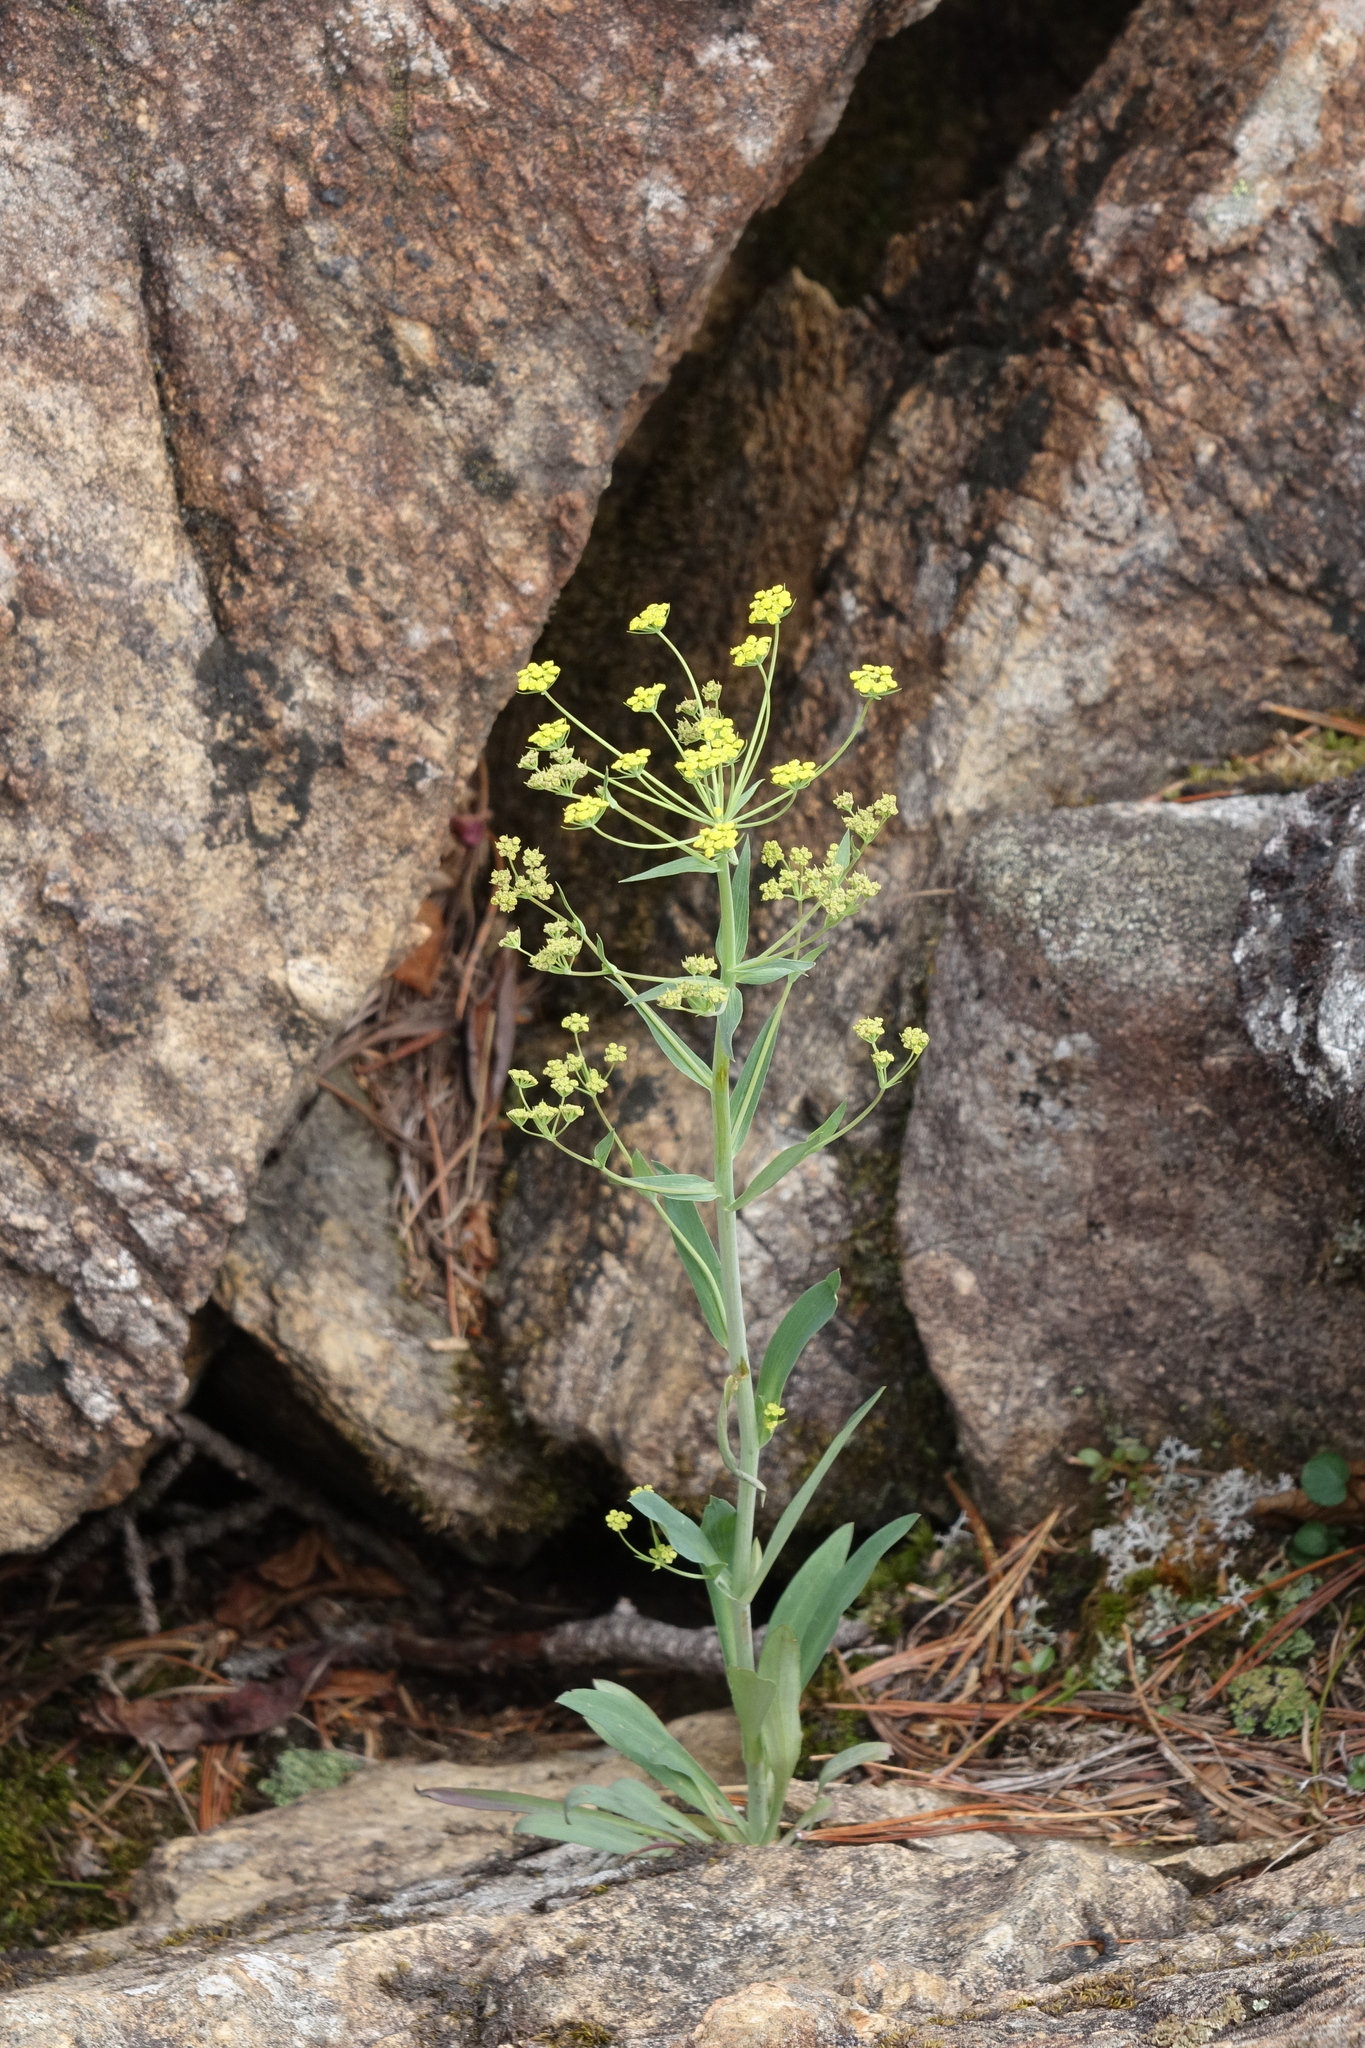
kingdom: Plantae
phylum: Tracheophyta
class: Magnoliopsida
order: Apiales
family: Apiaceae
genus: Bupleurum
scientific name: Bupleurum martjanovii
